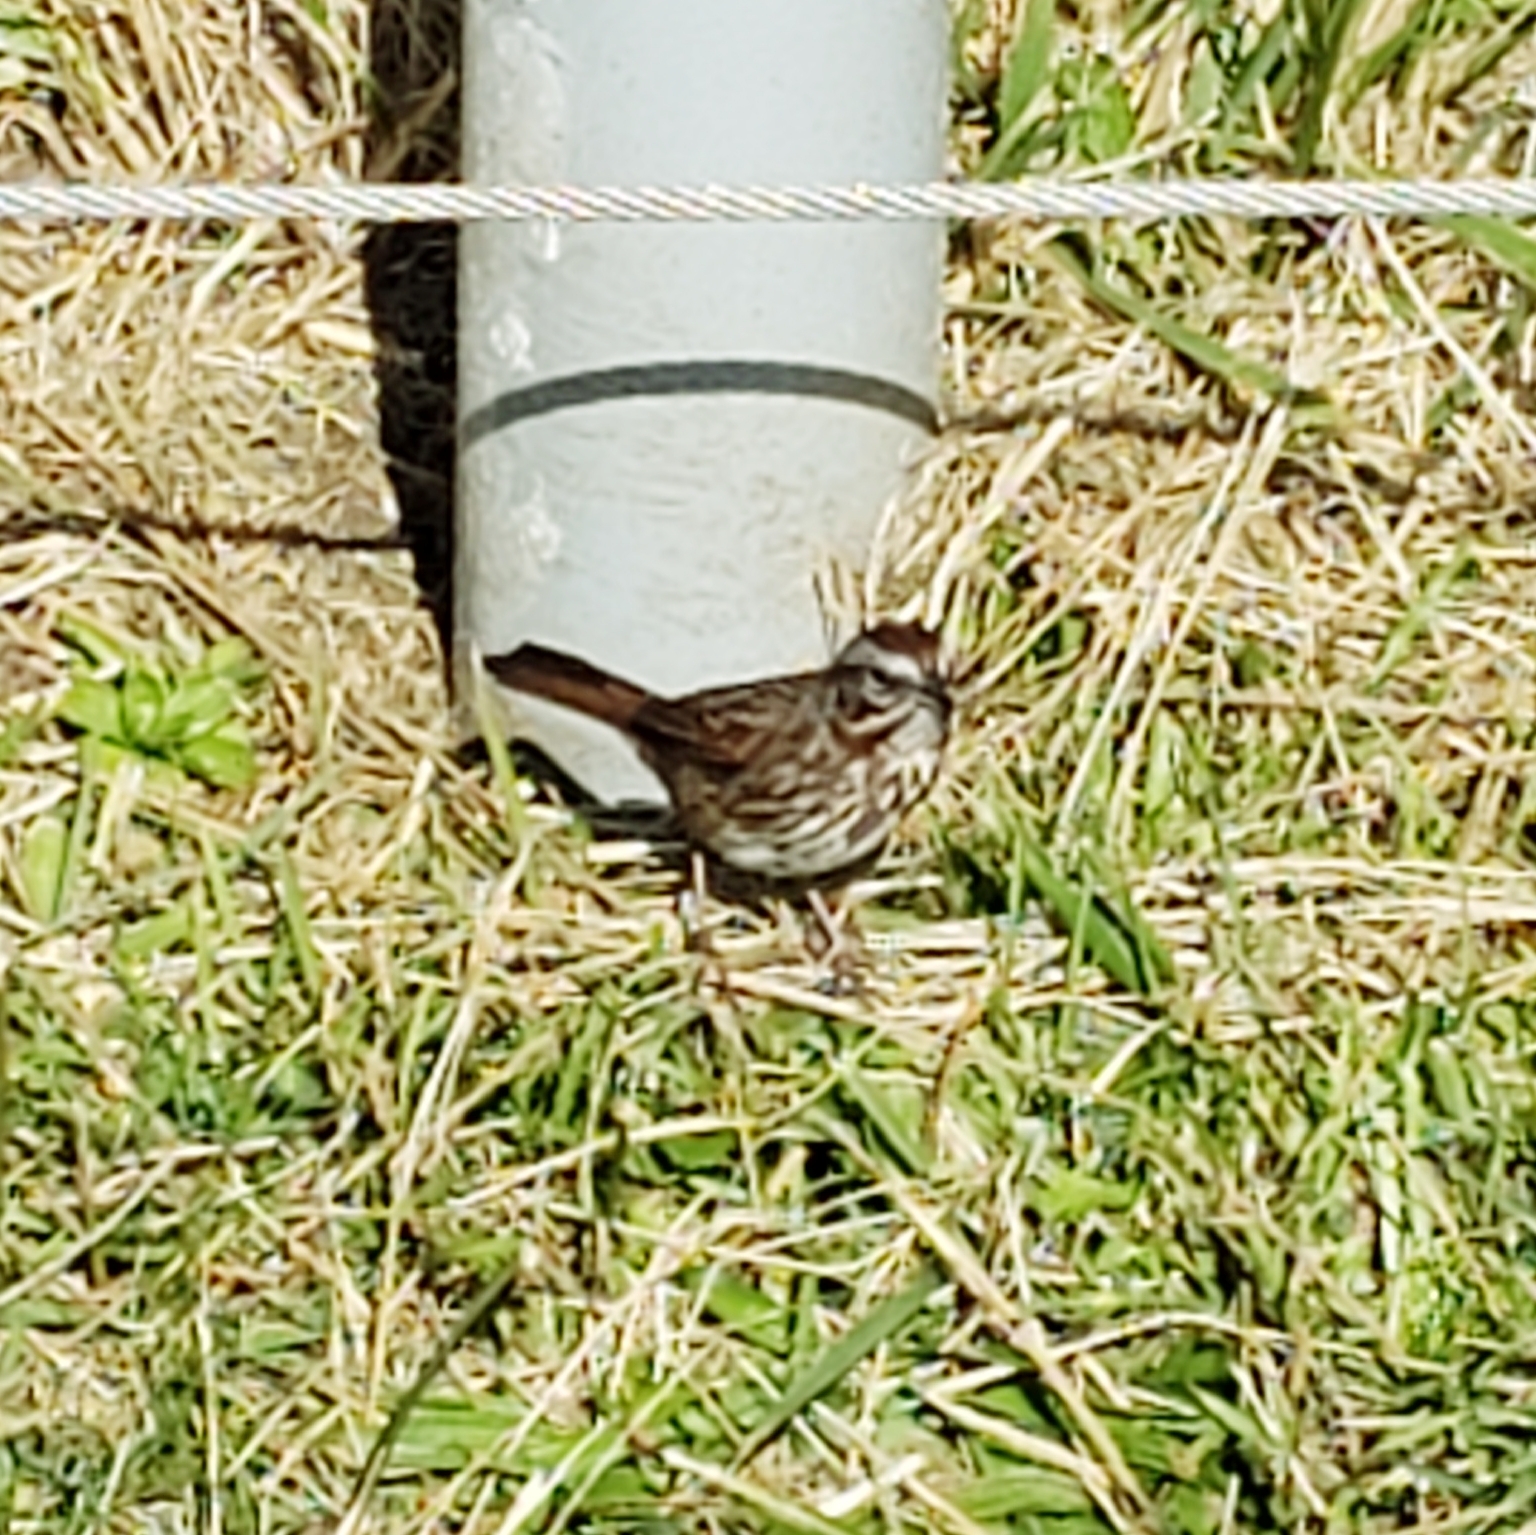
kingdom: Animalia
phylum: Chordata
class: Aves
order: Passeriformes
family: Passerellidae
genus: Melospiza
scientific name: Melospiza melodia
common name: Song sparrow
